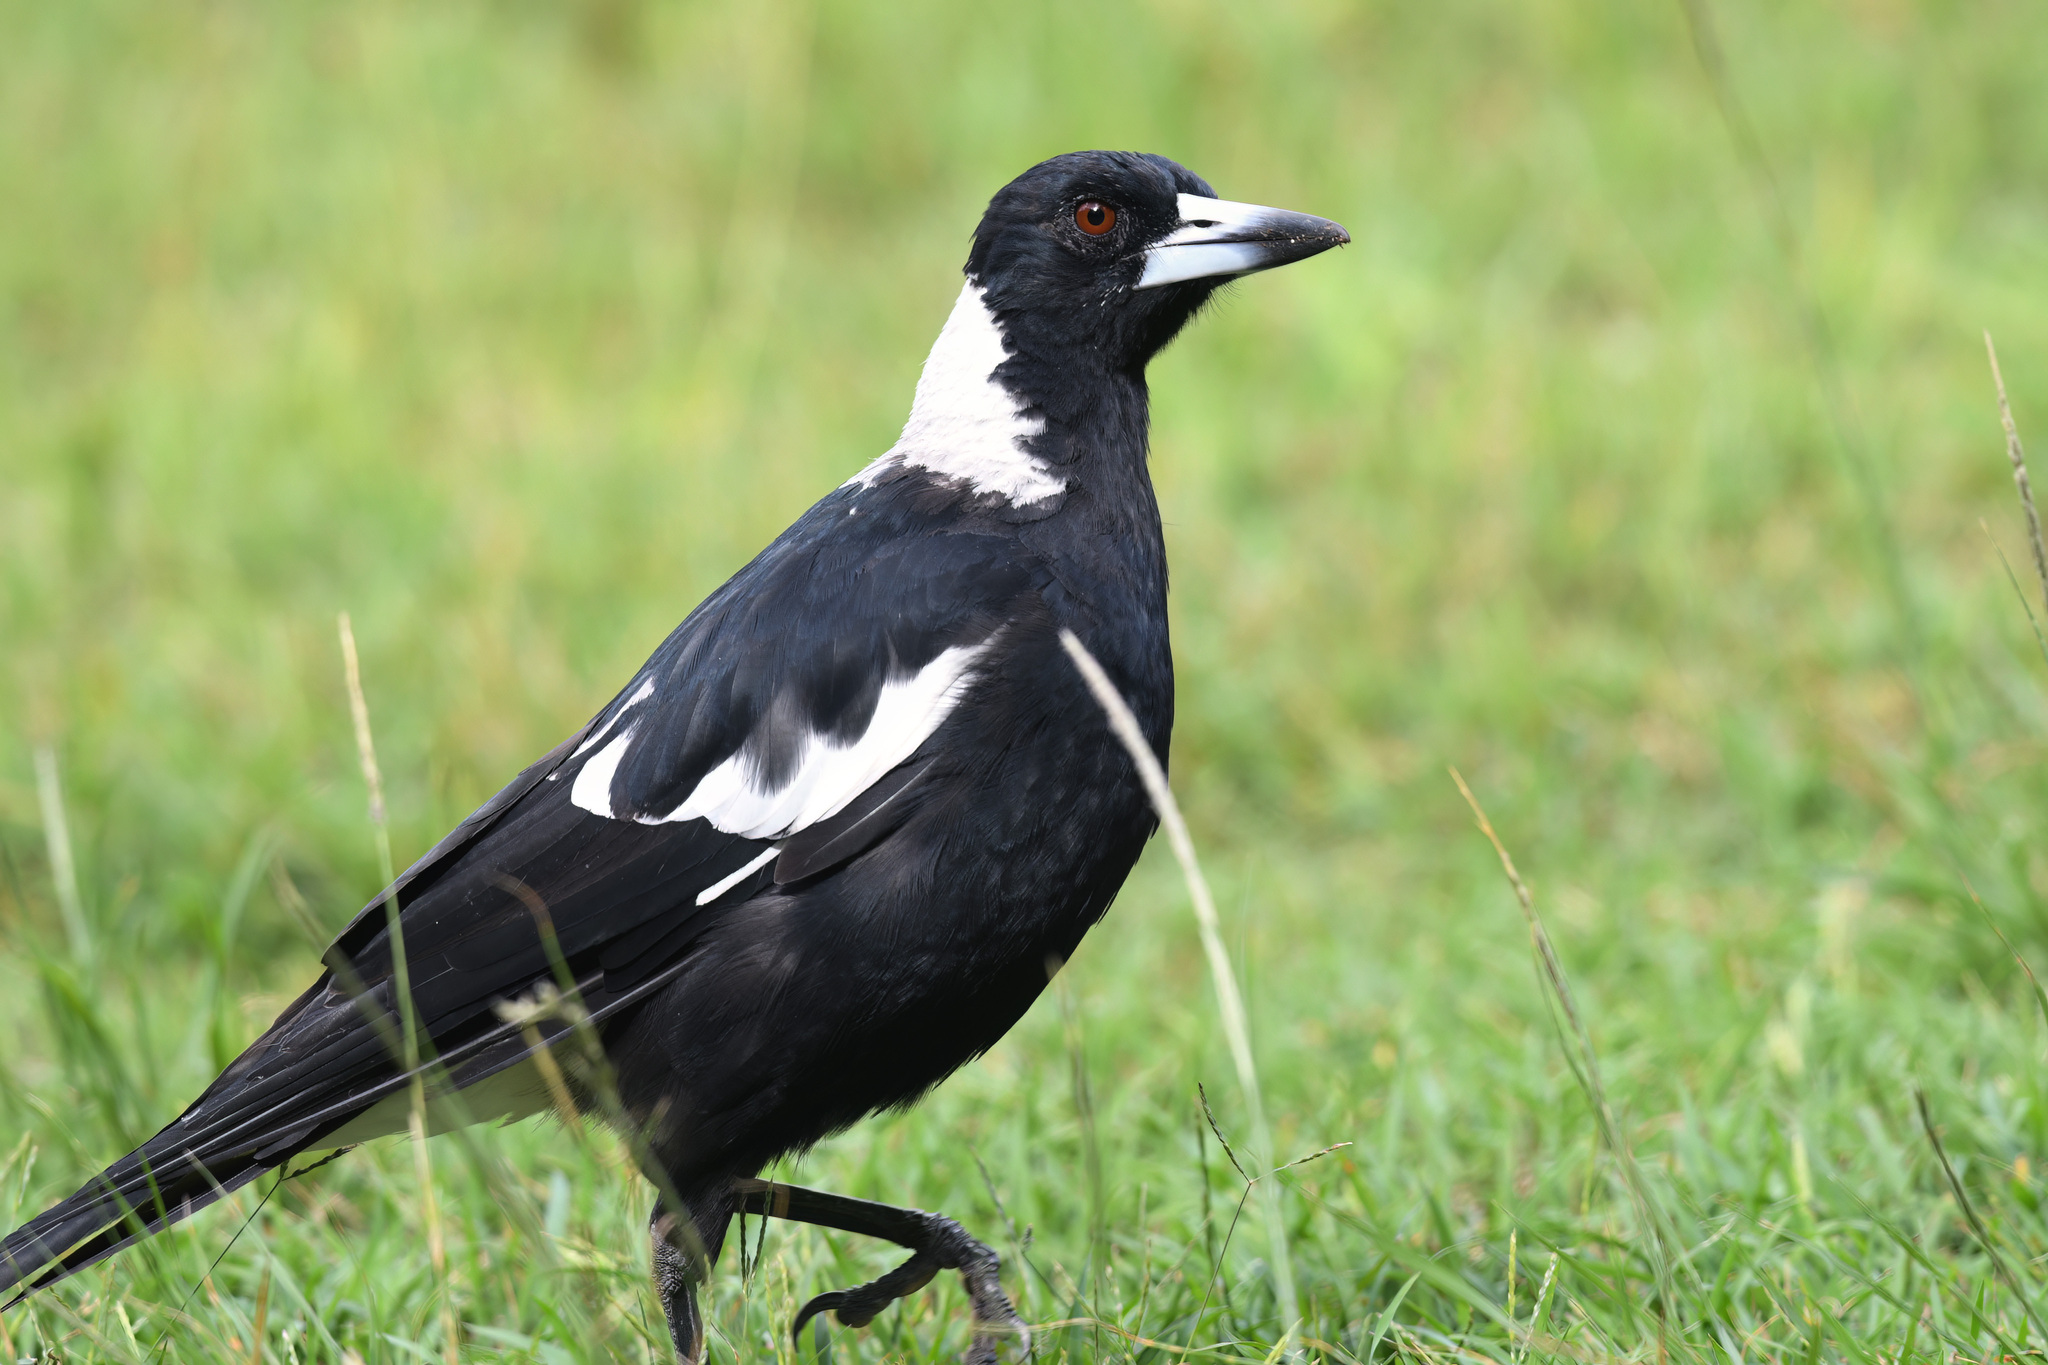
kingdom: Animalia
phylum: Chordata
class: Aves
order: Passeriformes
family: Cracticidae
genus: Gymnorhina
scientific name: Gymnorhina tibicen
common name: Australian magpie
